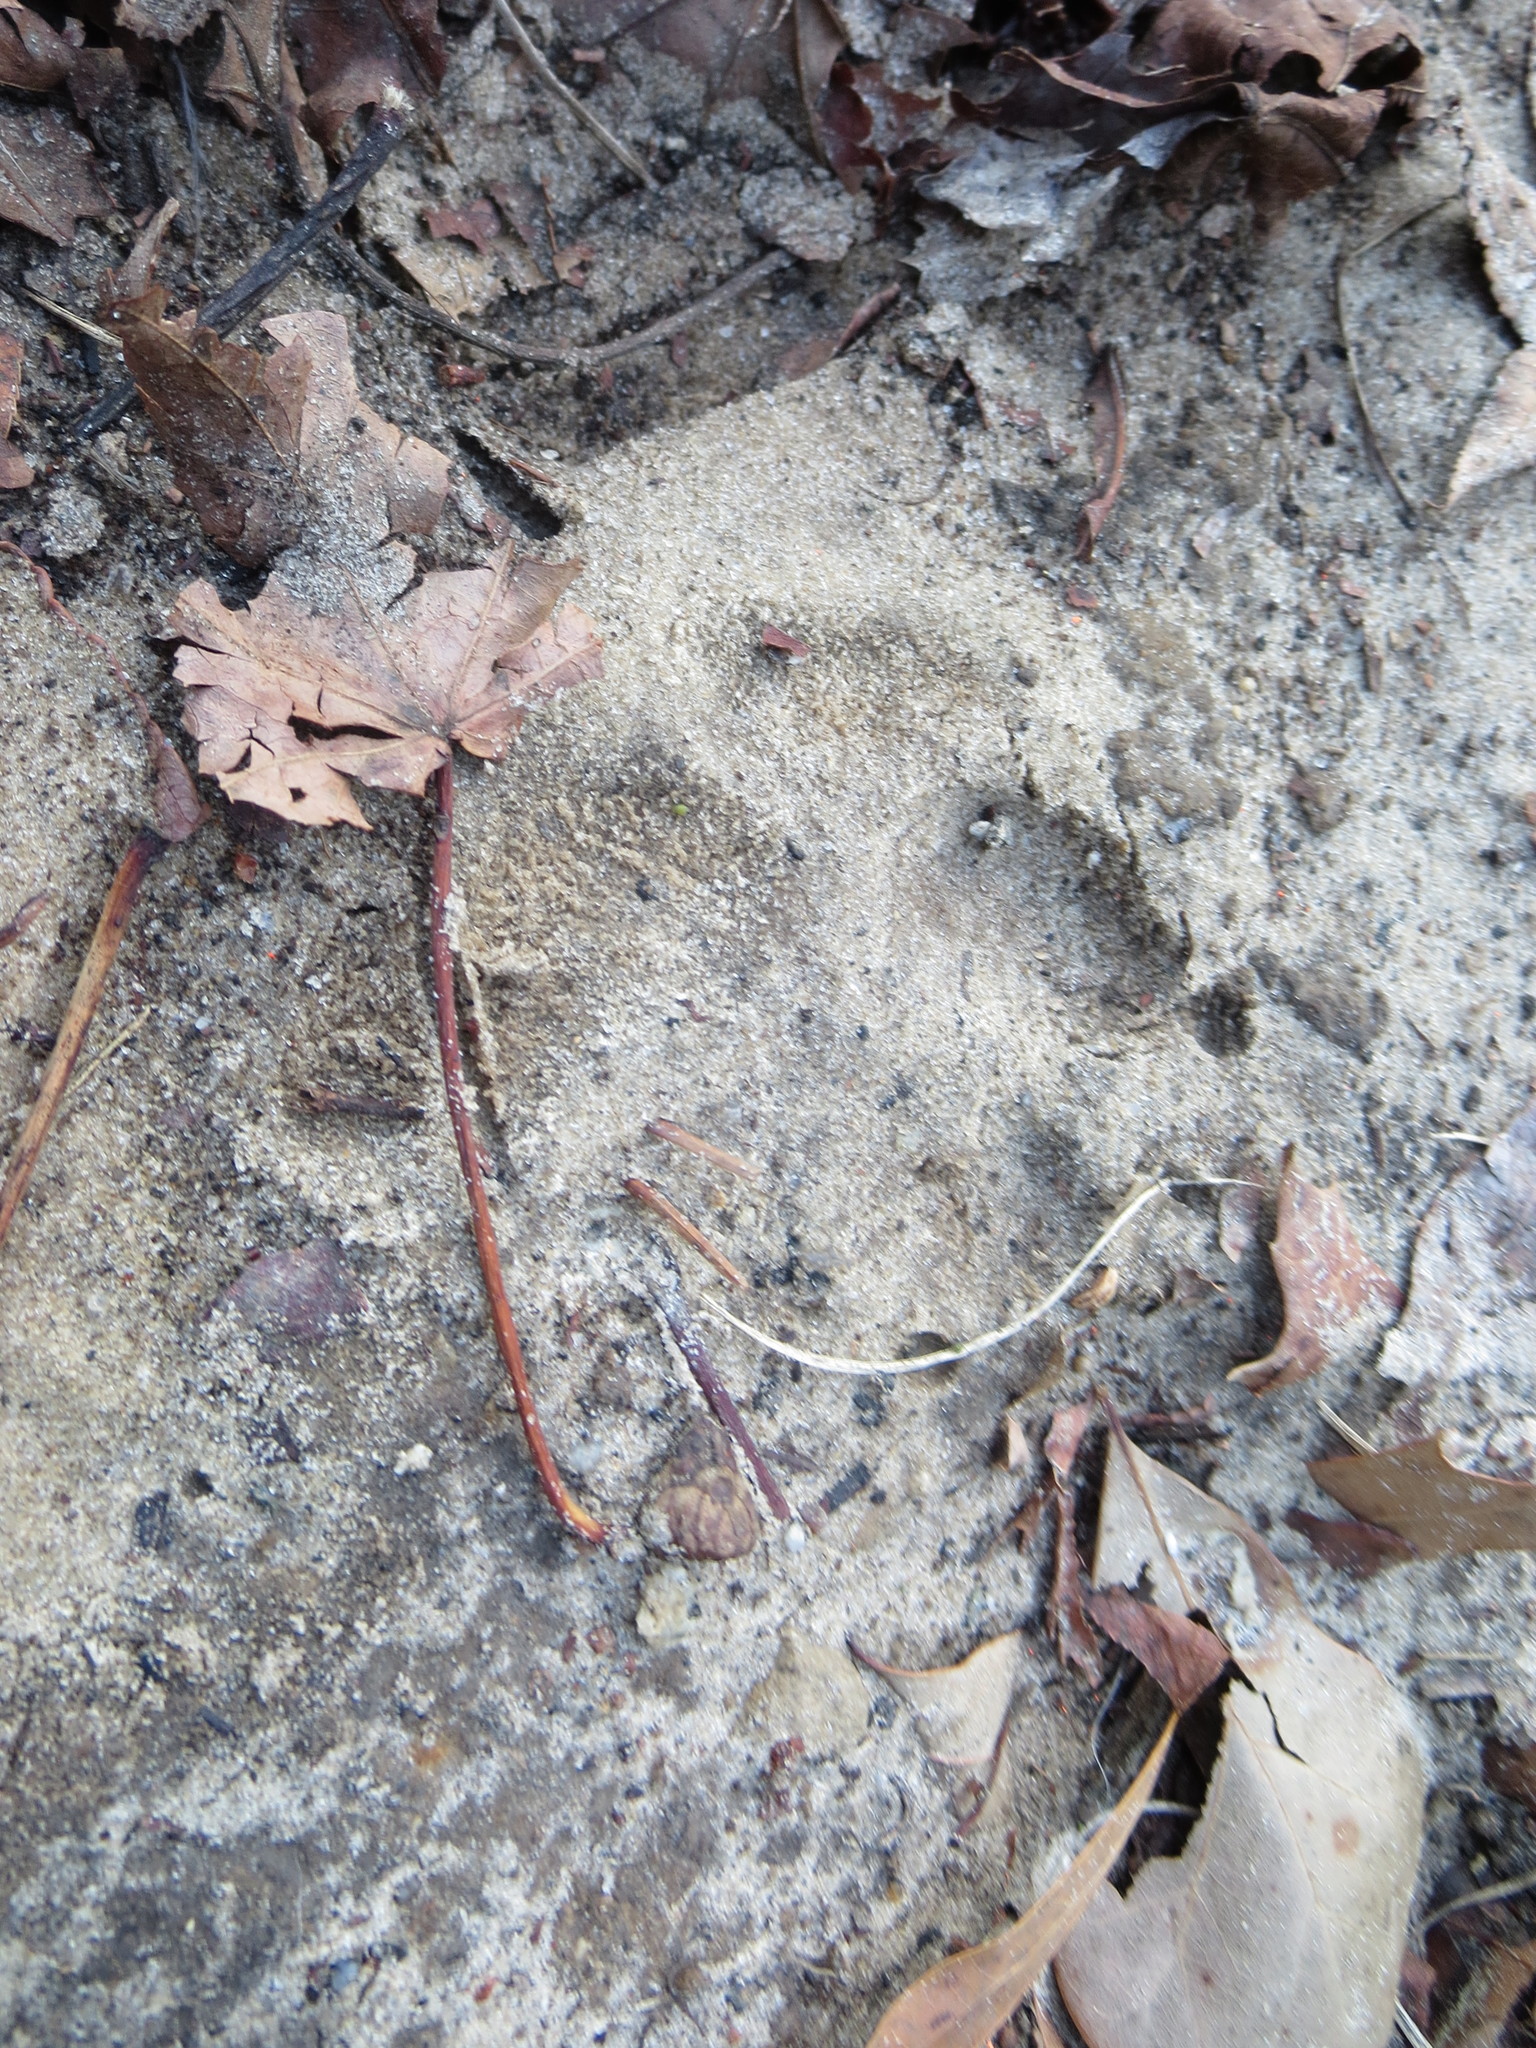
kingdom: Animalia
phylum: Chordata
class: Mammalia
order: Carnivora
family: Canidae
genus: Vulpes
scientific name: Vulpes vulpes
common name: Red fox
